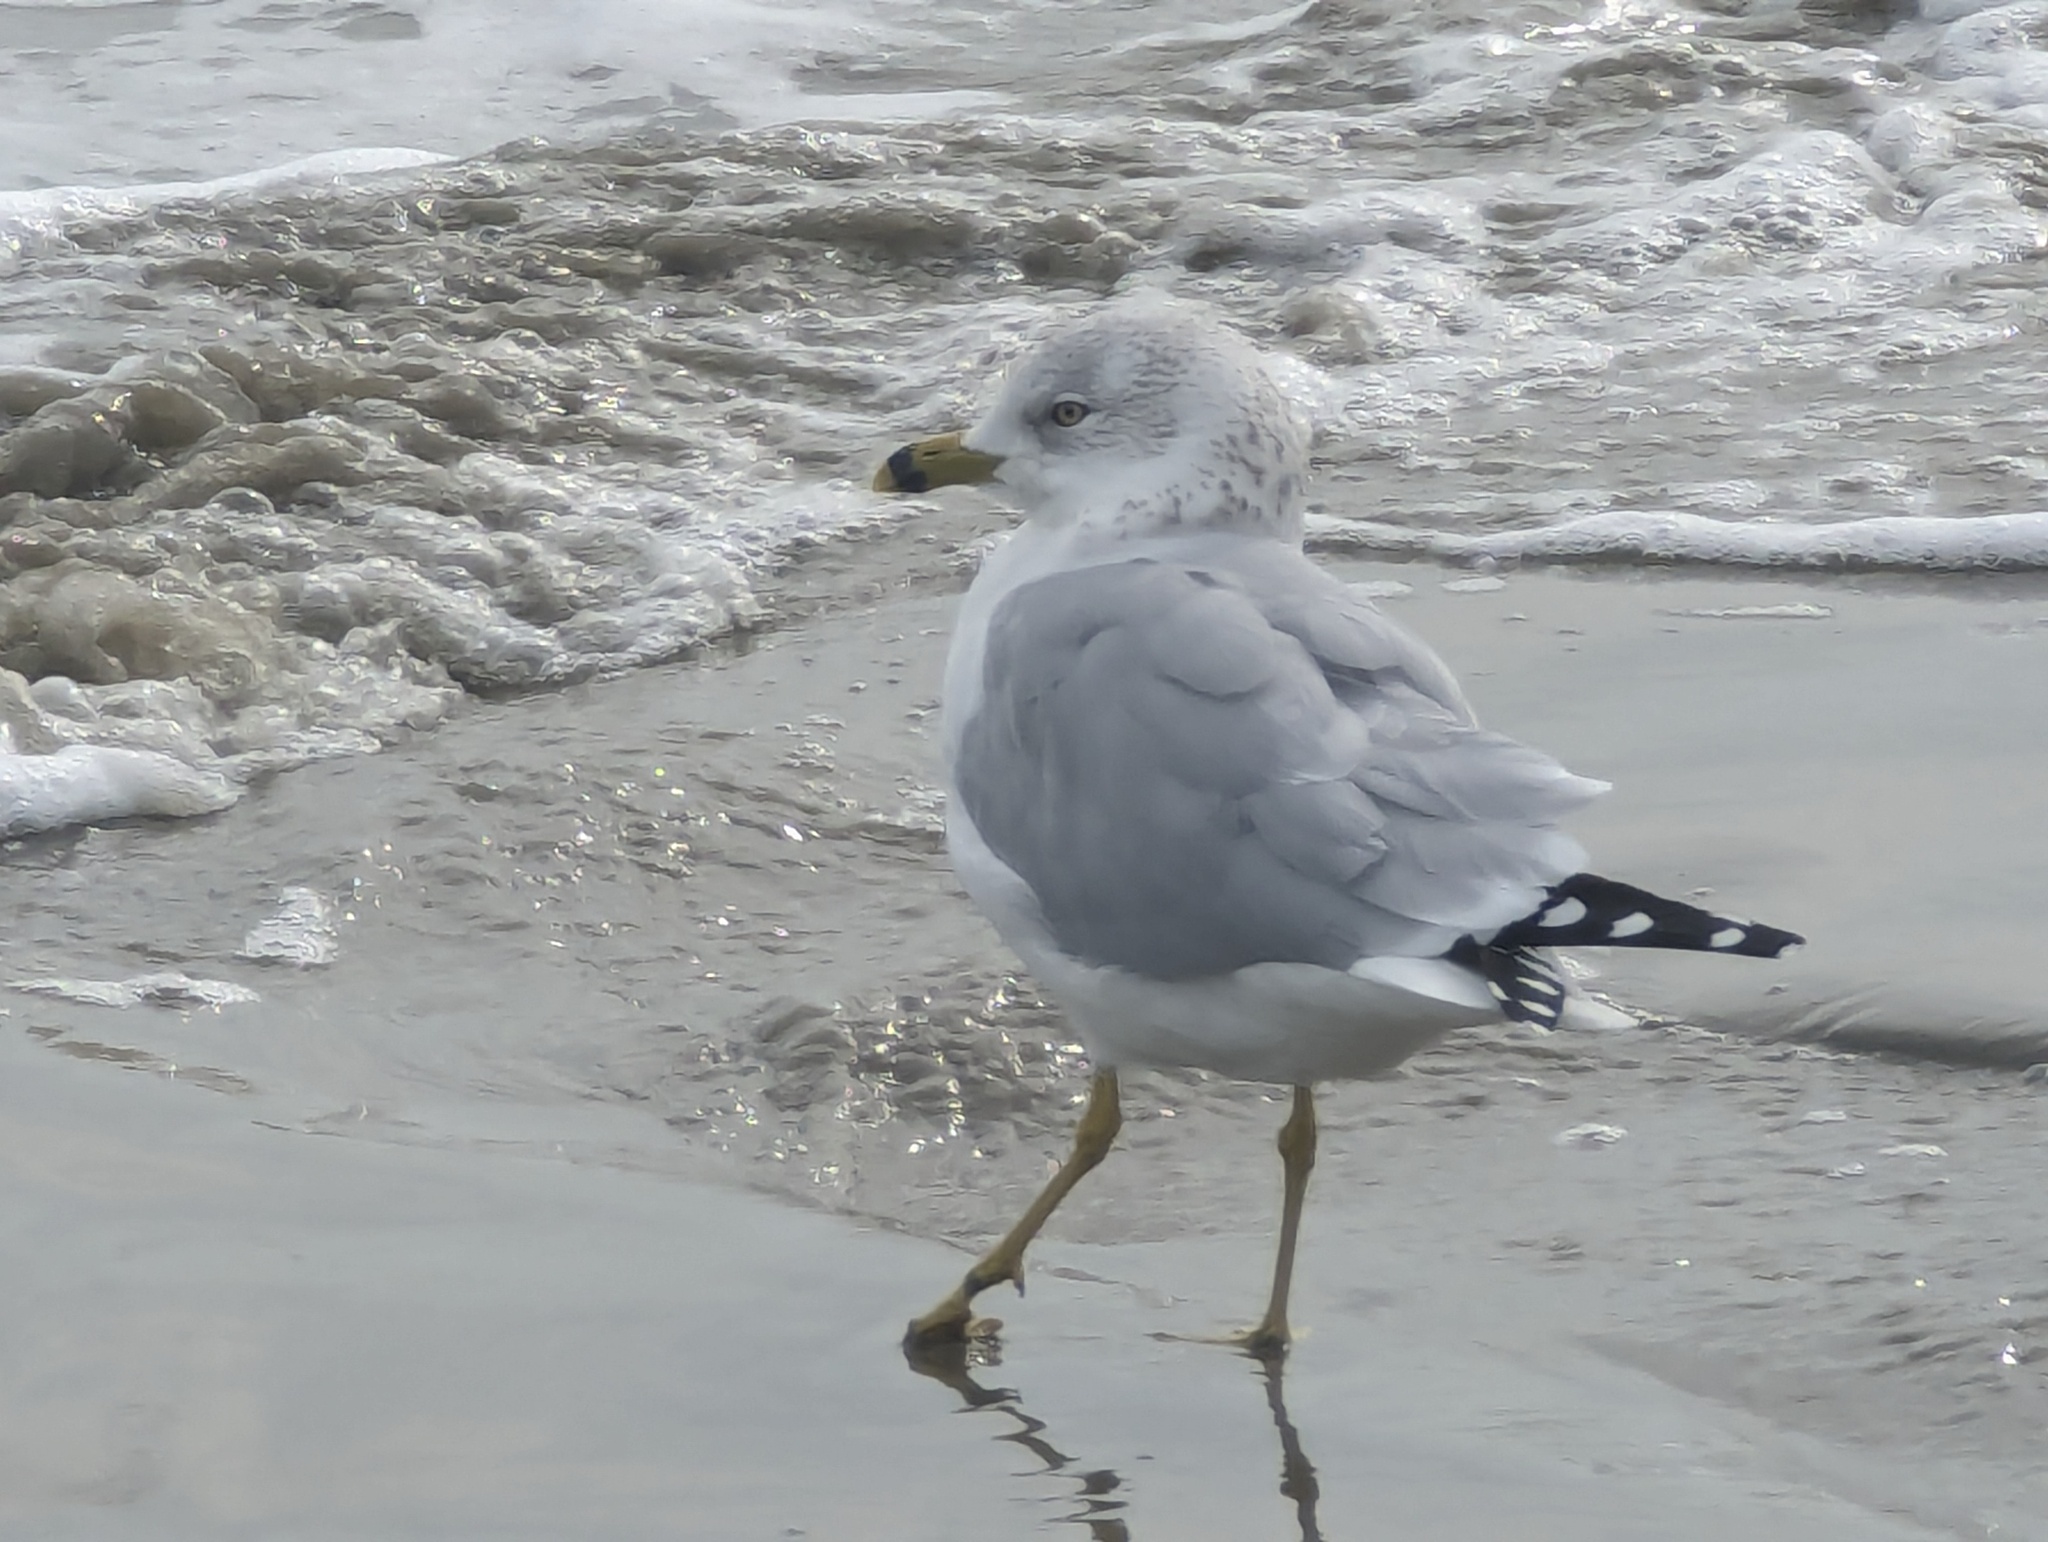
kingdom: Animalia
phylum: Chordata
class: Aves
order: Charadriiformes
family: Laridae
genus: Larus
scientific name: Larus delawarensis
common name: Ring-billed gull
